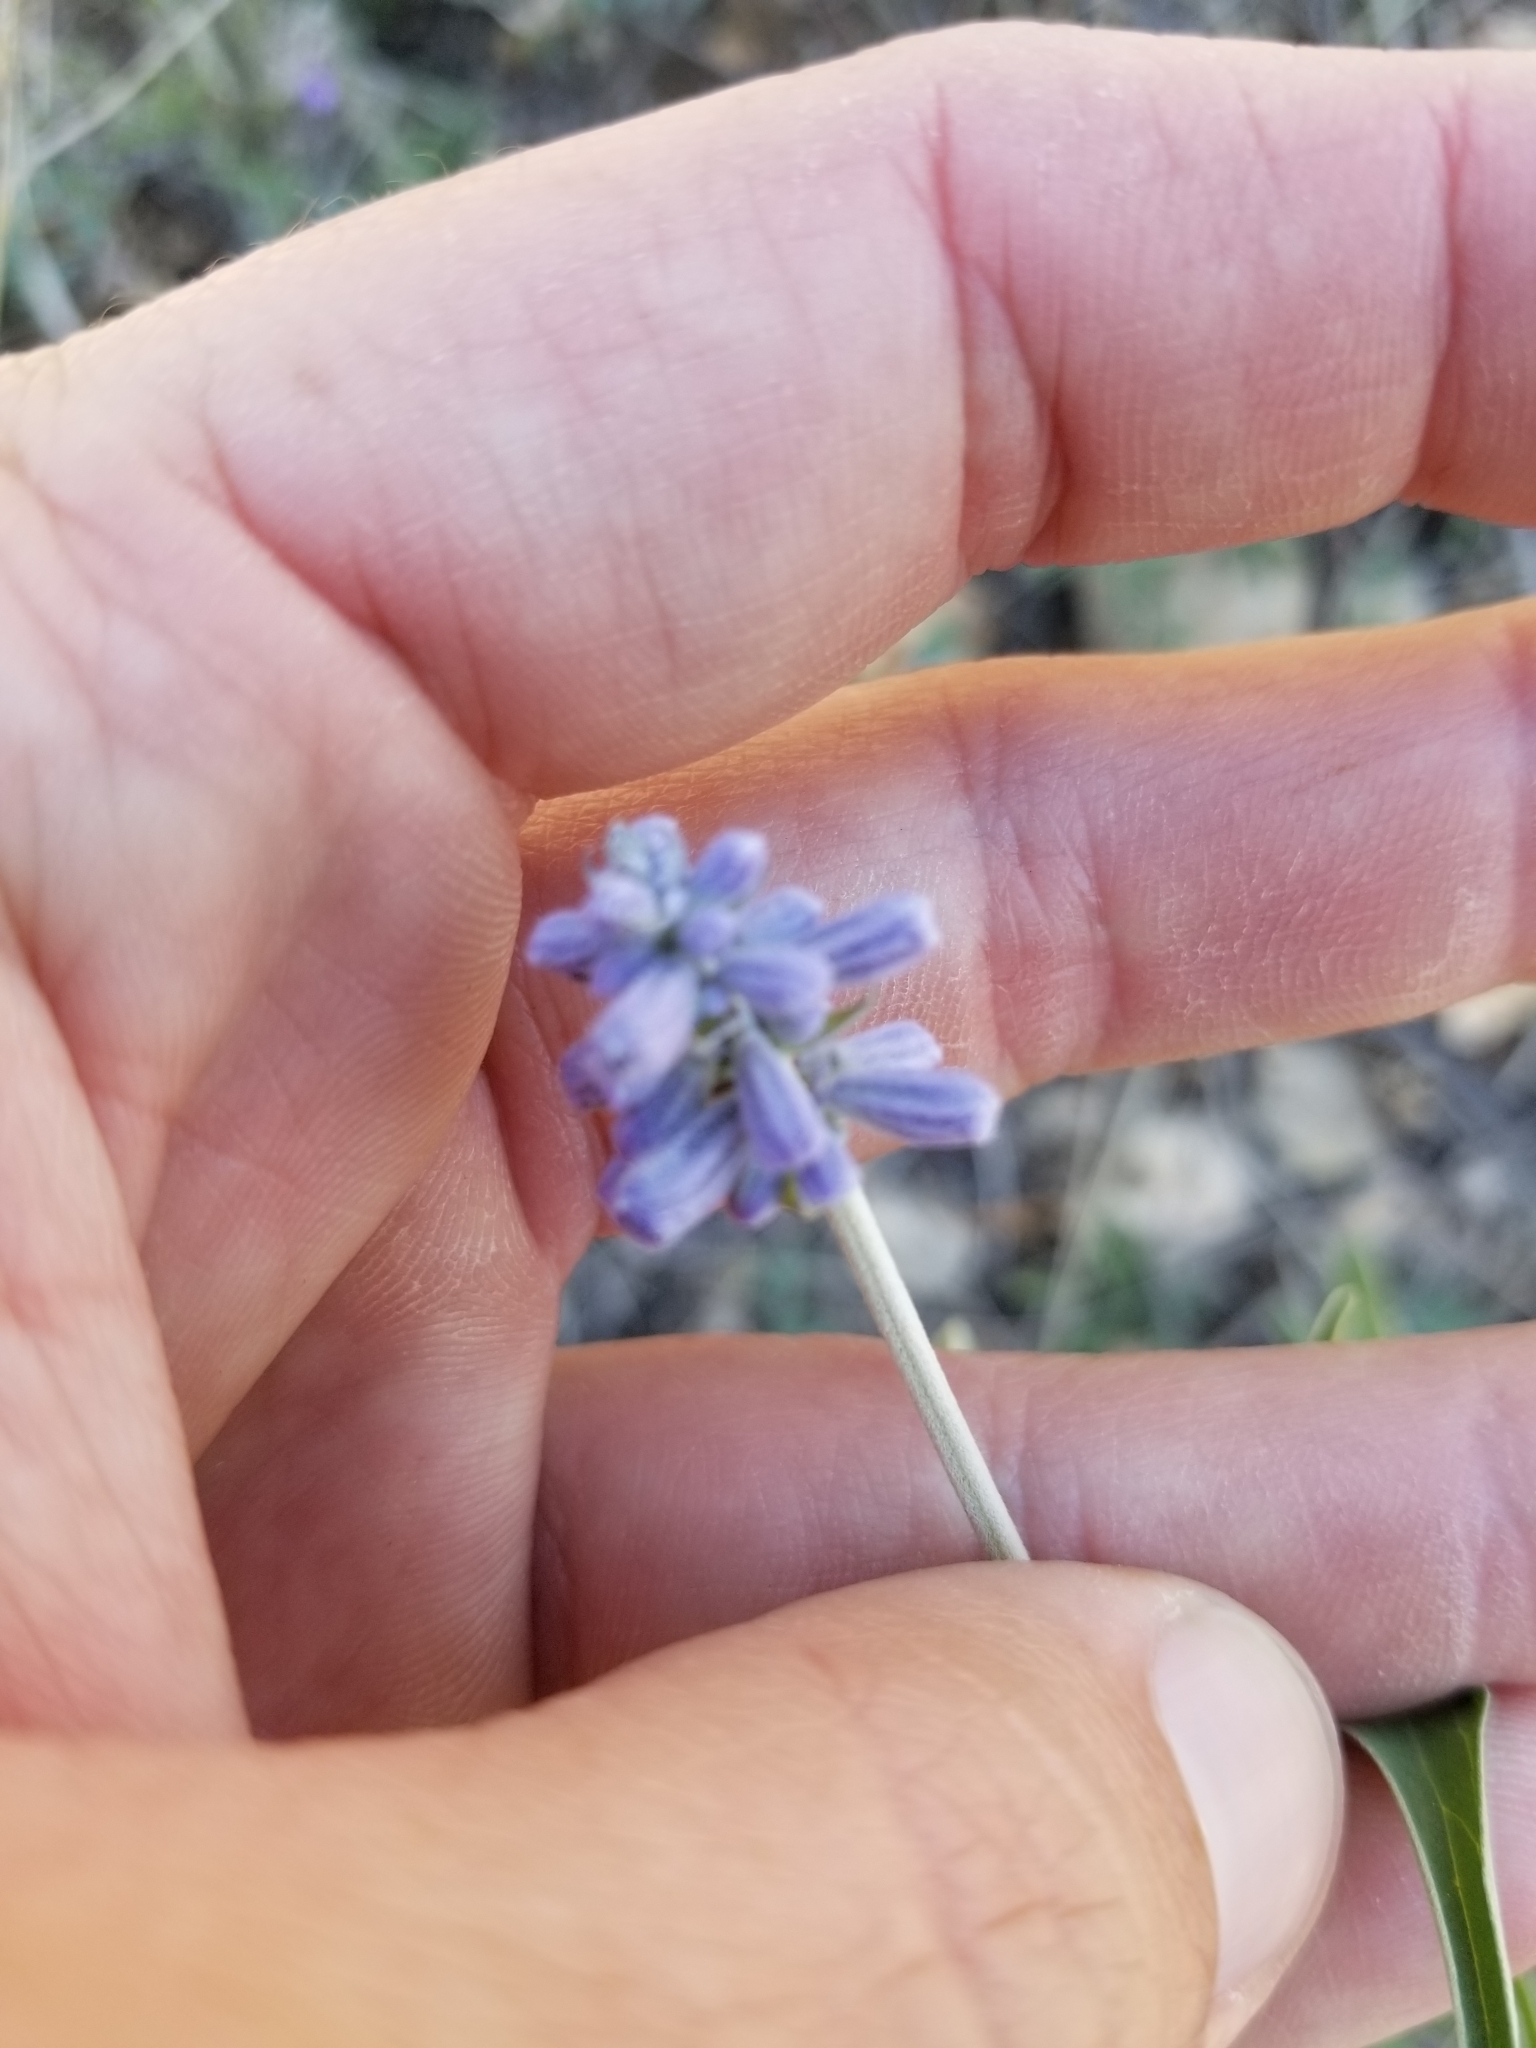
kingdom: Plantae
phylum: Tracheophyta
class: Magnoliopsida
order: Lamiales
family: Lamiaceae
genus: Salvia
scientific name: Salvia farinacea
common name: Mealy sage
